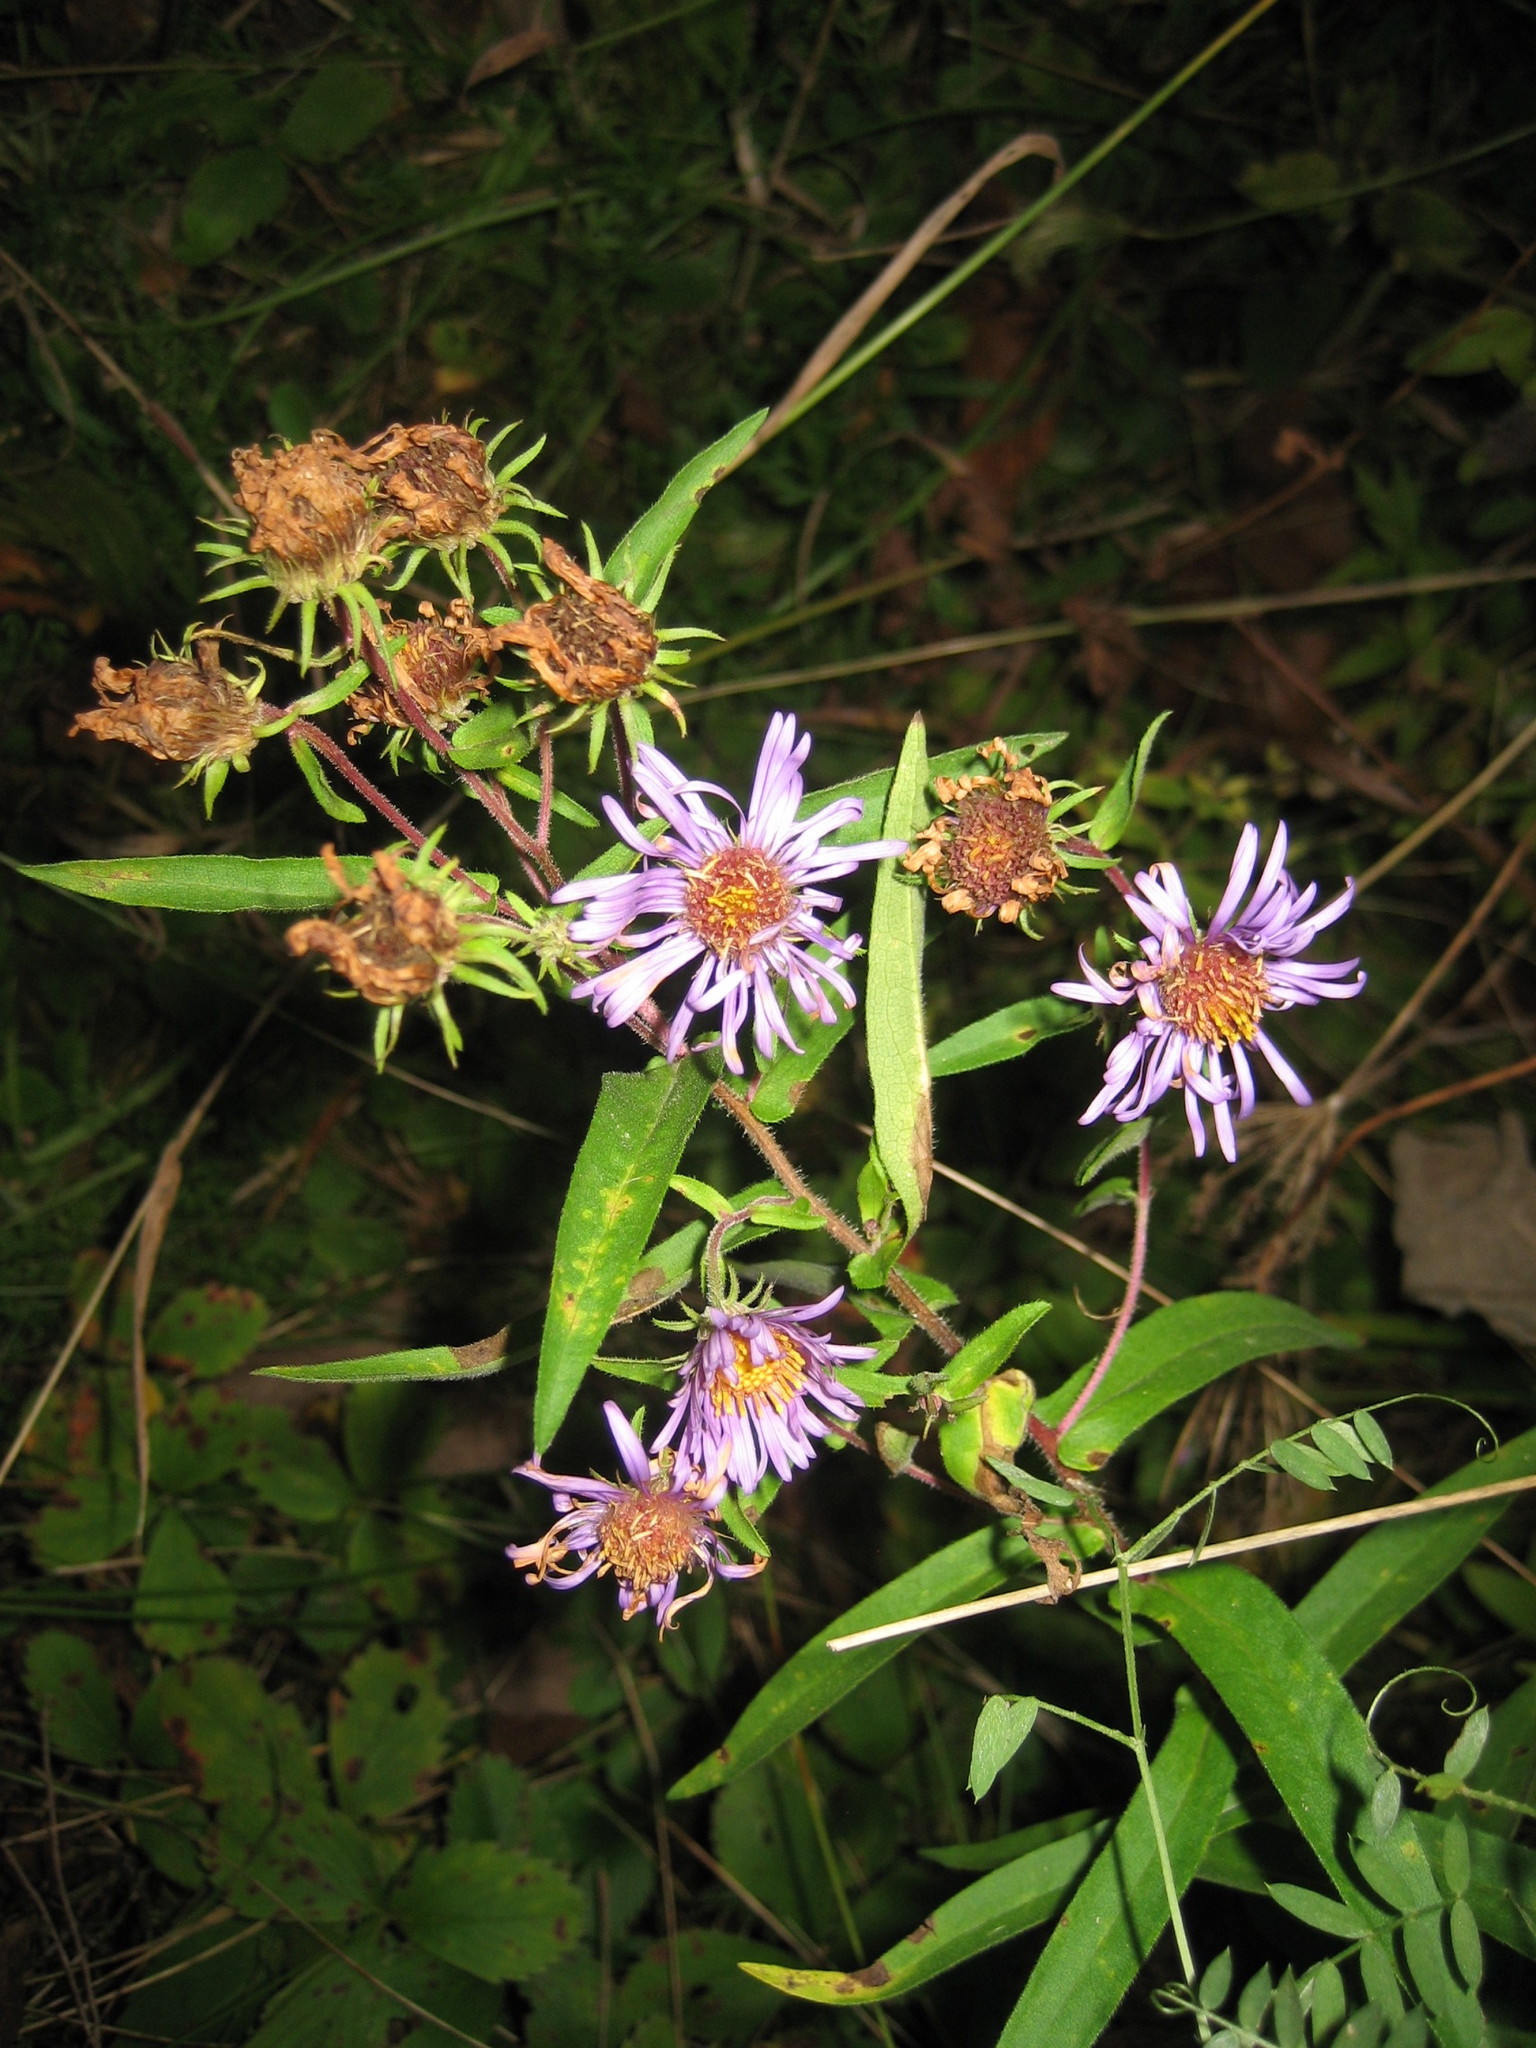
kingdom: Plantae
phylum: Tracheophyta
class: Magnoliopsida
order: Asterales
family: Asteraceae
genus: Symphyotrichum
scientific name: Symphyotrichum novae-angliae
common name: Michaelmas daisy
